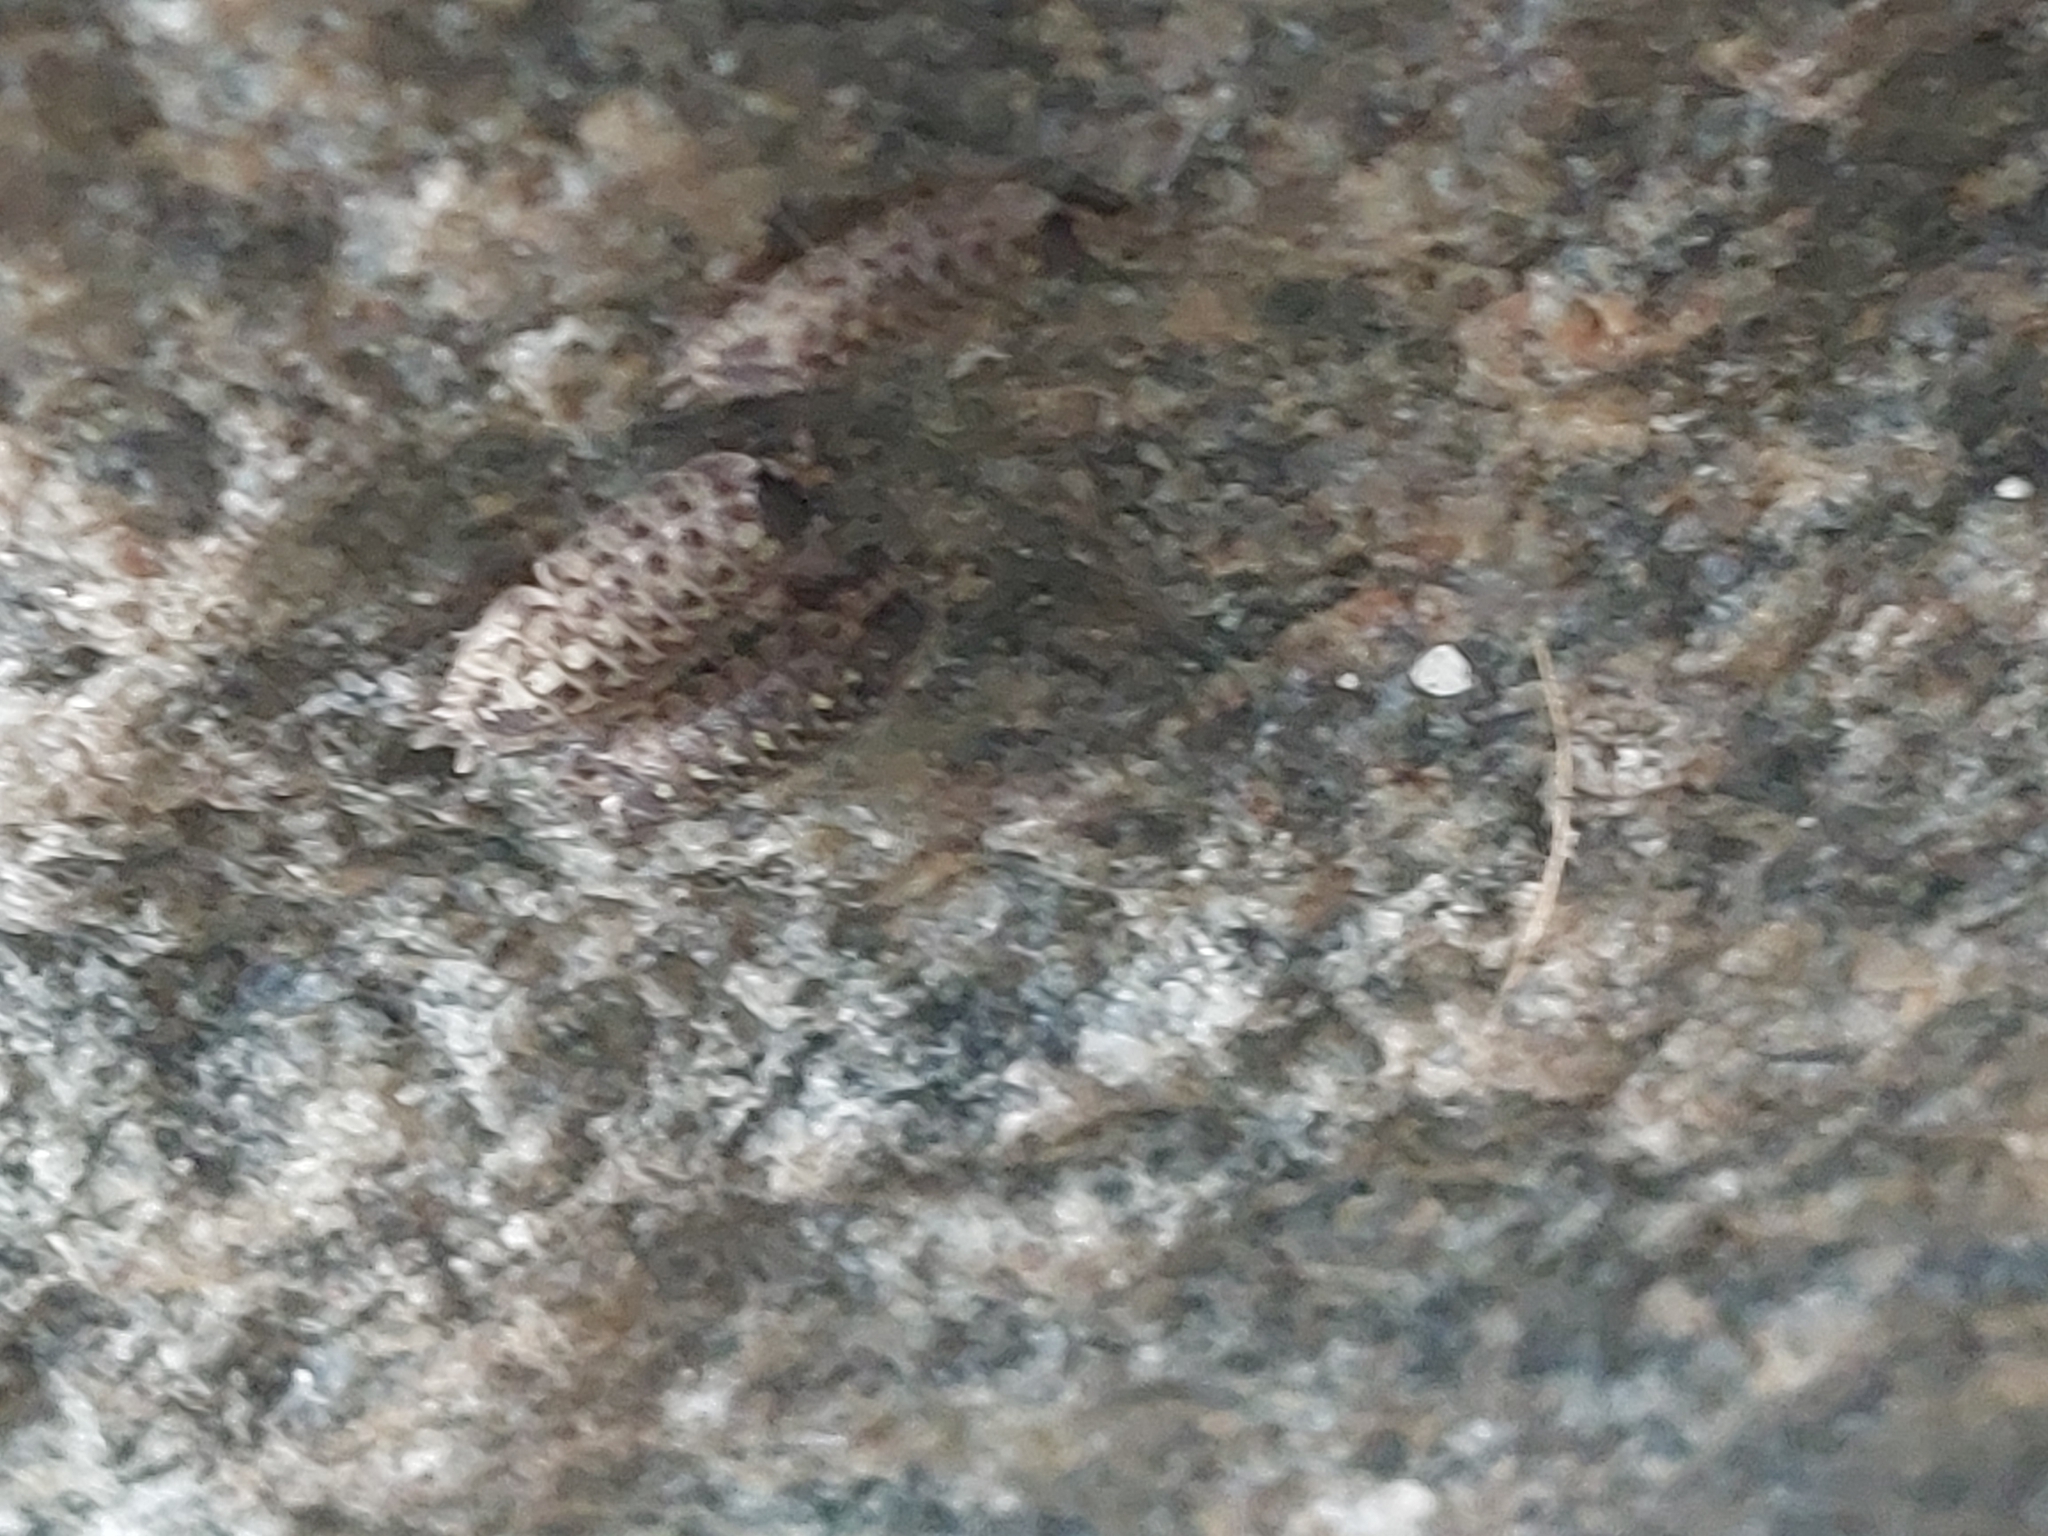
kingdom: Animalia
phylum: Arthropoda
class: Malacostraca
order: Isopoda
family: Porcellionidae
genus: Porcellio
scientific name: Porcellio spinicornis
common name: Painted woodlouse
